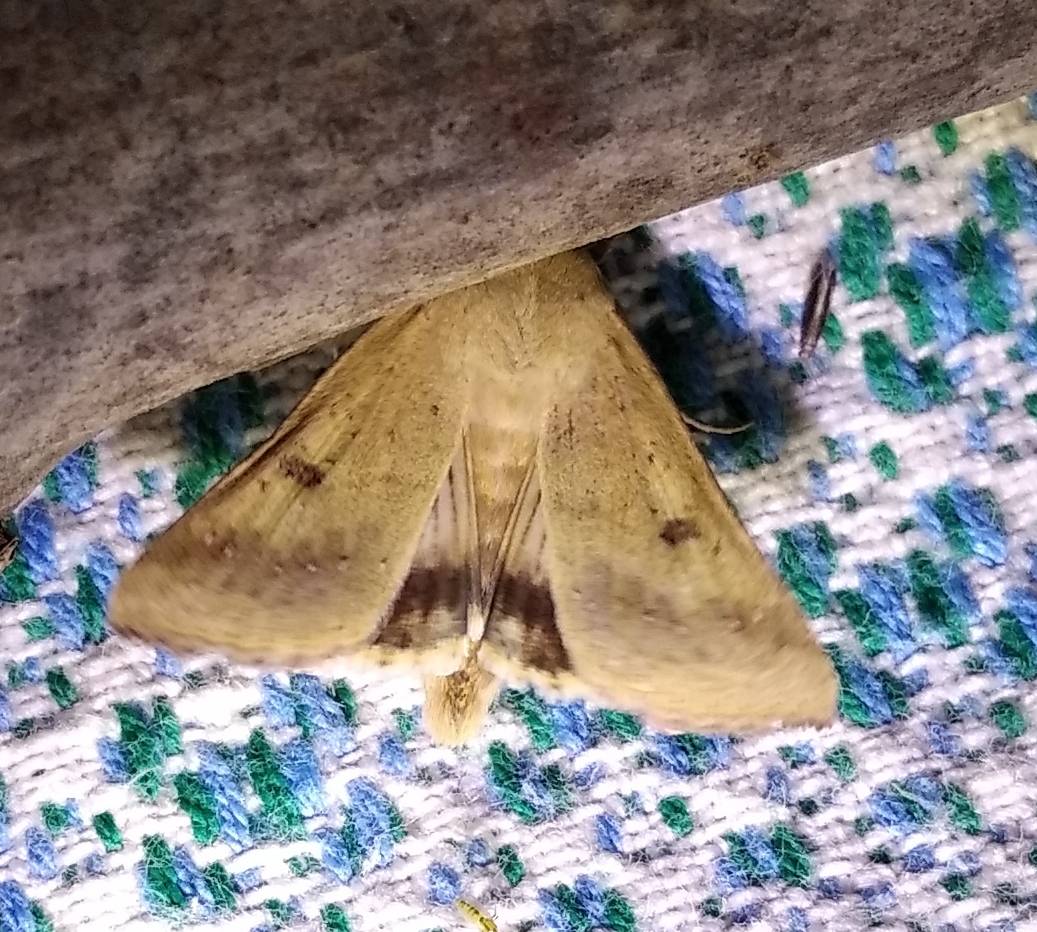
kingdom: Animalia
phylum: Arthropoda
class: Insecta
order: Lepidoptera
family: Noctuidae
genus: Helicoverpa
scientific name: Helicoverpa armigera
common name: Cotton bollworm
